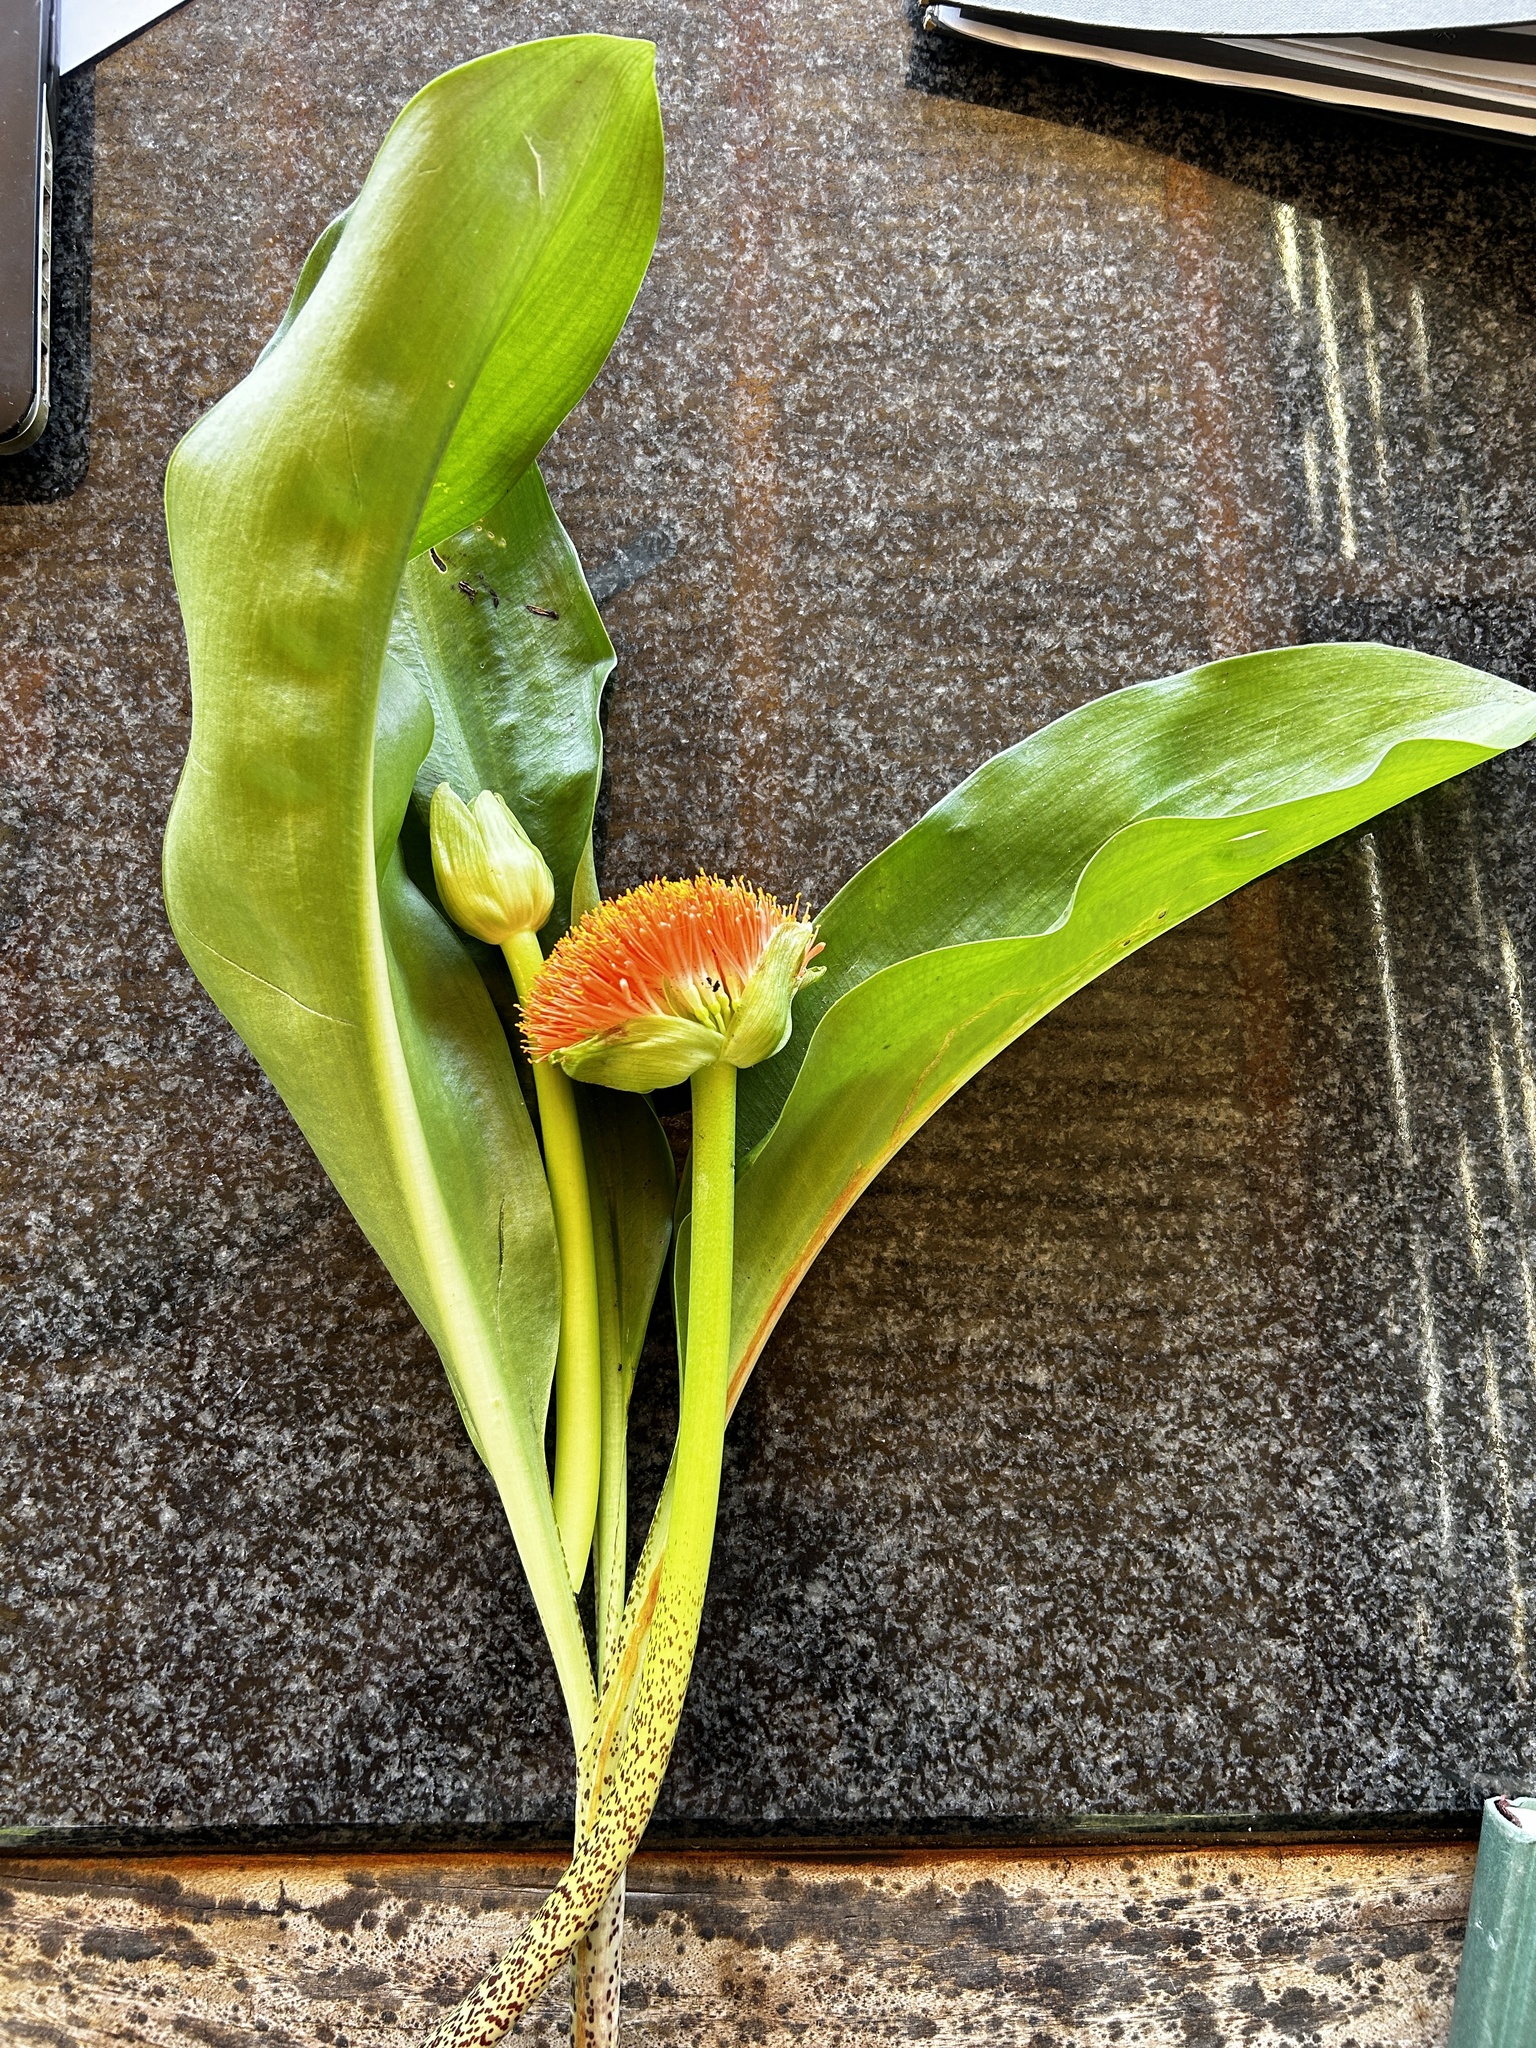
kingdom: Plantae
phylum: Tracheophyta
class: Liliopsida
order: Asparagales
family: Amaryllidaceae
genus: Scadoxus
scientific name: Scadoxus puniceus
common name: Royal-paintbrush
